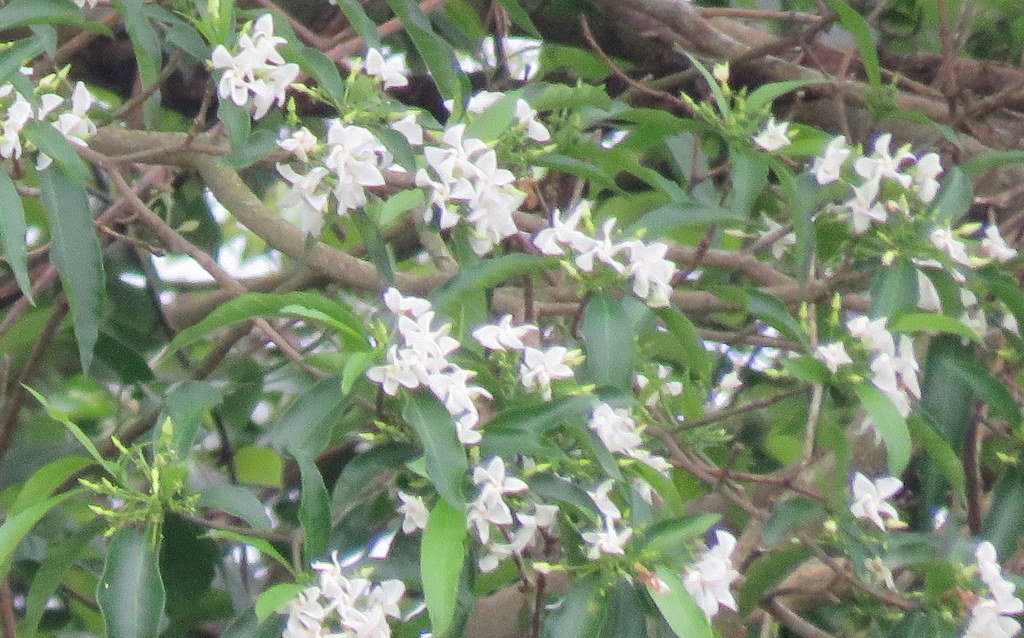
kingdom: Plantae
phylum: Tracheophyta
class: Magnoliopsida
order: Gentianales
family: Apocynaceae
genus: Tabernaemontana
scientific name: Tabernaemontana catharinensis
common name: Pinwheel-flower
